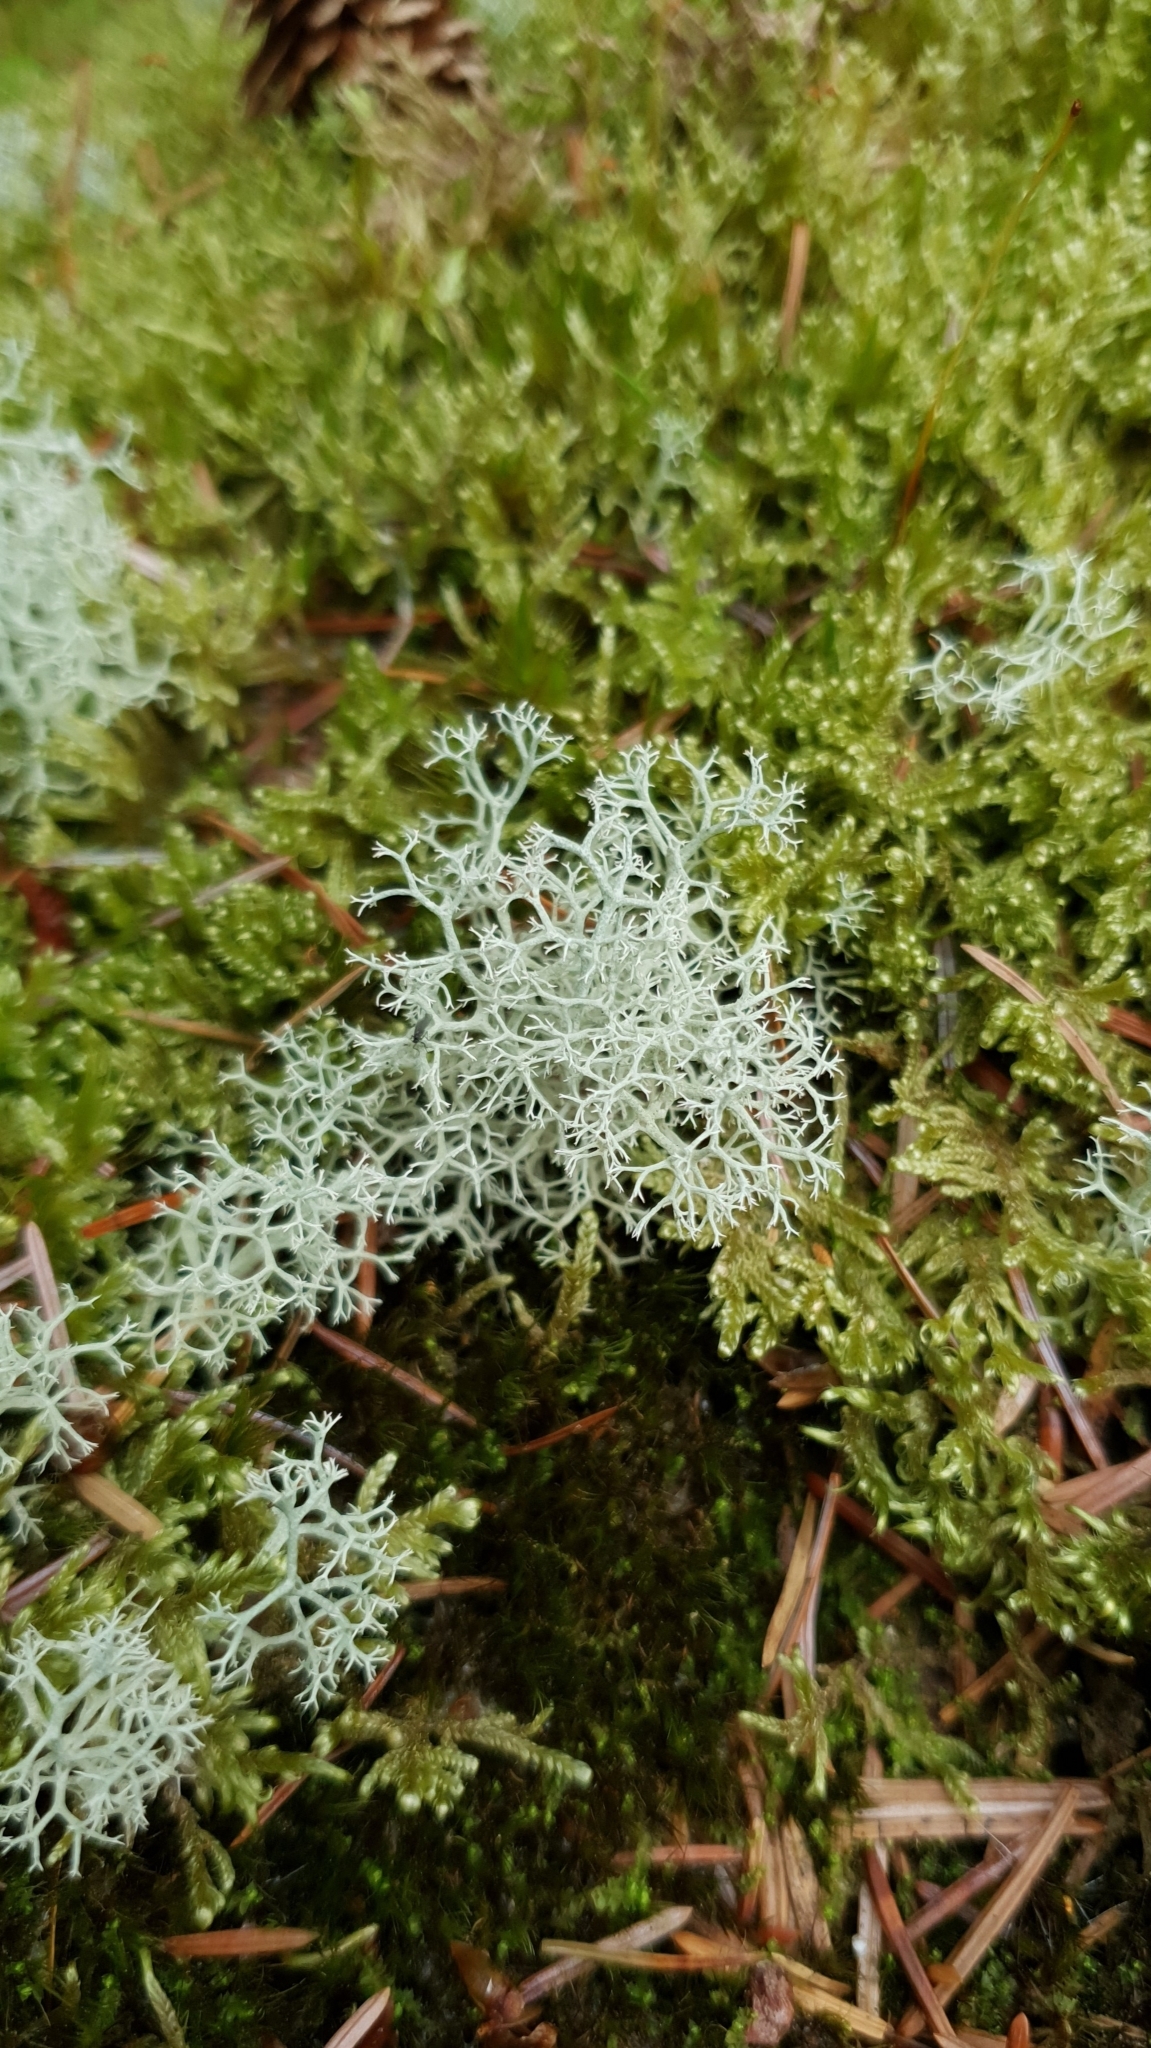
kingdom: Fungi
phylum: Ascomycota
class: Lecanoromycetes
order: Lecanorales
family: Cladoniaceae
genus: Cladonia
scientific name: Cladonia portentosa
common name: Reindeer lichen
